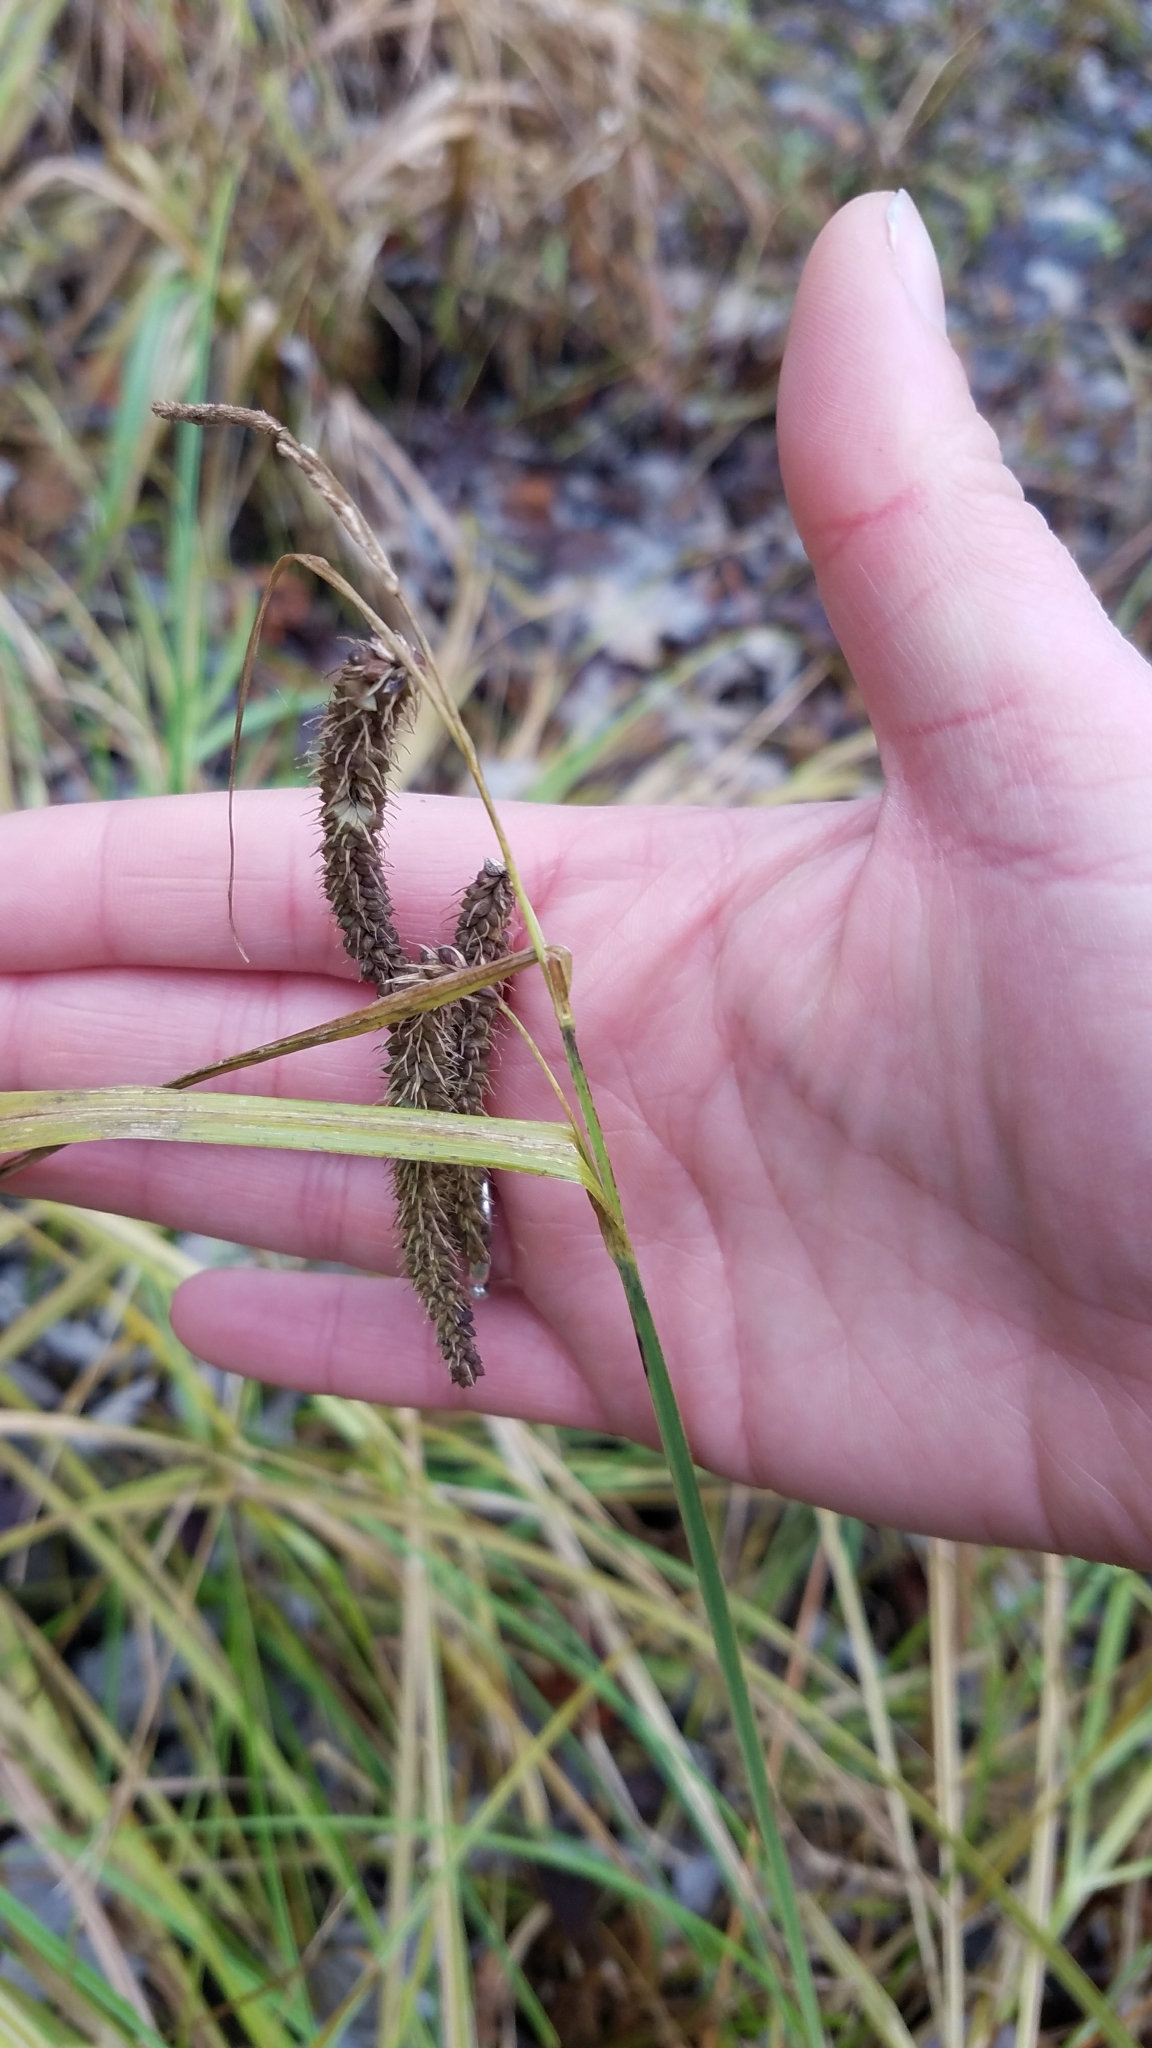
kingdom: Plantae
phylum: Tracheophyta
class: Liliopsida
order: Poales
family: Cyperaceae
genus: Carex
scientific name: Carex crinita
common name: Fringed sedge
